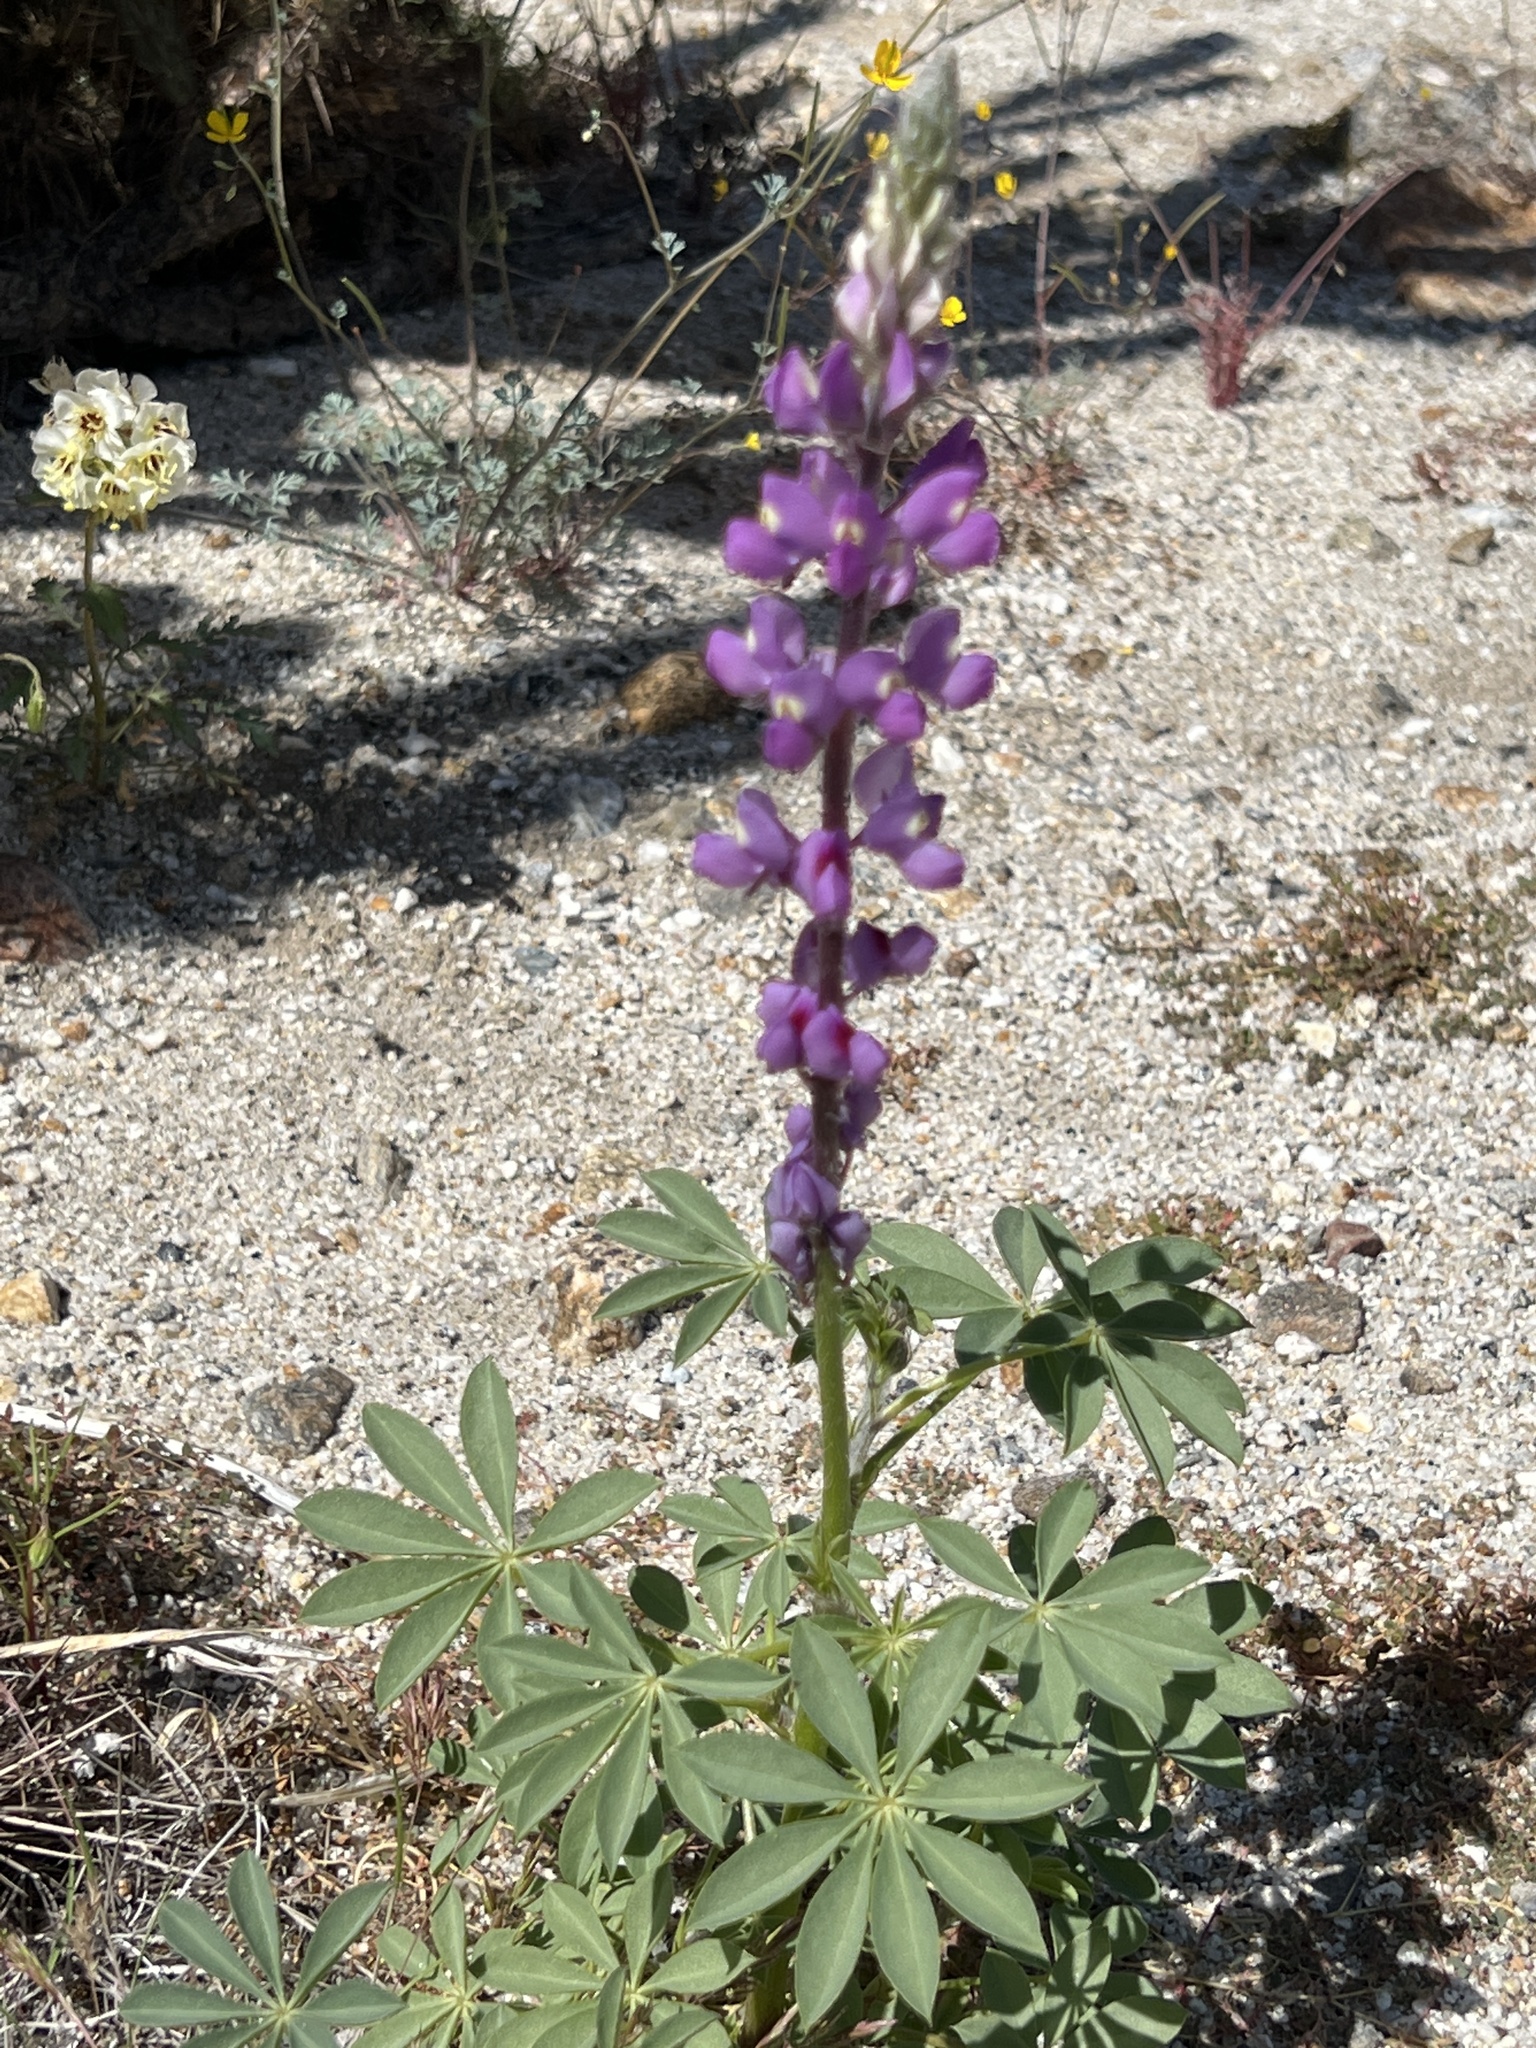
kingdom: Plantae
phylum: Tracheophyta
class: Magnoliopsida
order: Fabales
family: Fabaceae
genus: Lupinus
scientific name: Lupinus arizonicus
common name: Arizona lupine
